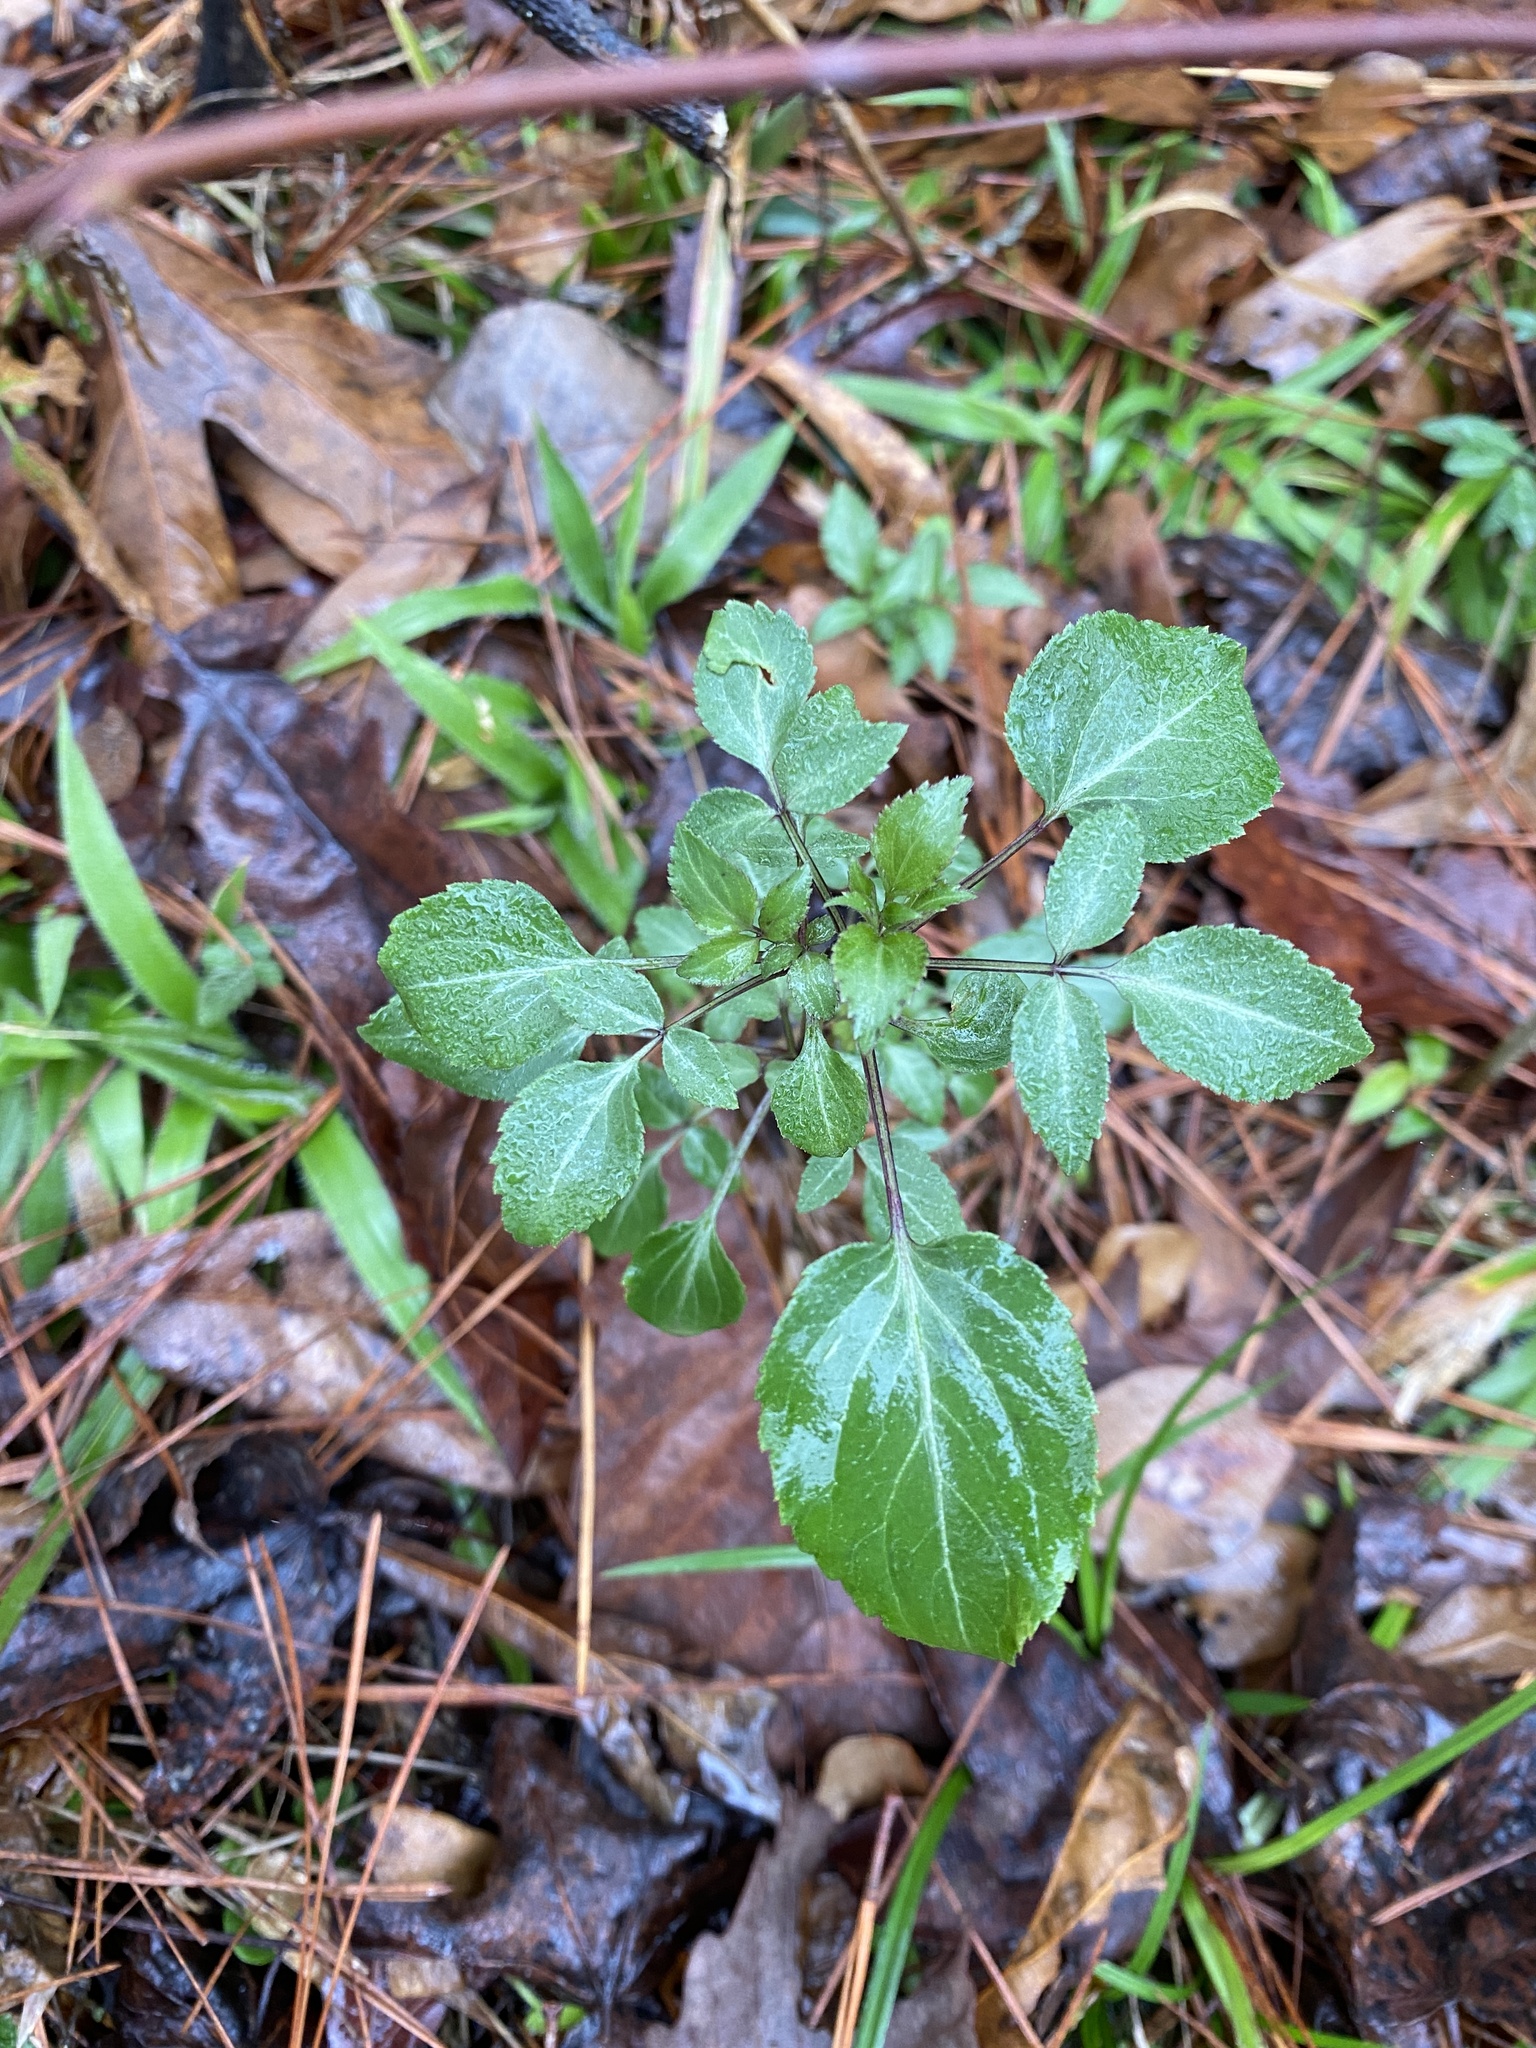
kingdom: Plantae
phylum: Tracheophyta
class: Magnoliopsida
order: Dipsacales
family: Viburnaceae
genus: Sambucus
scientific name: Sambucus canadensis
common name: American elder
